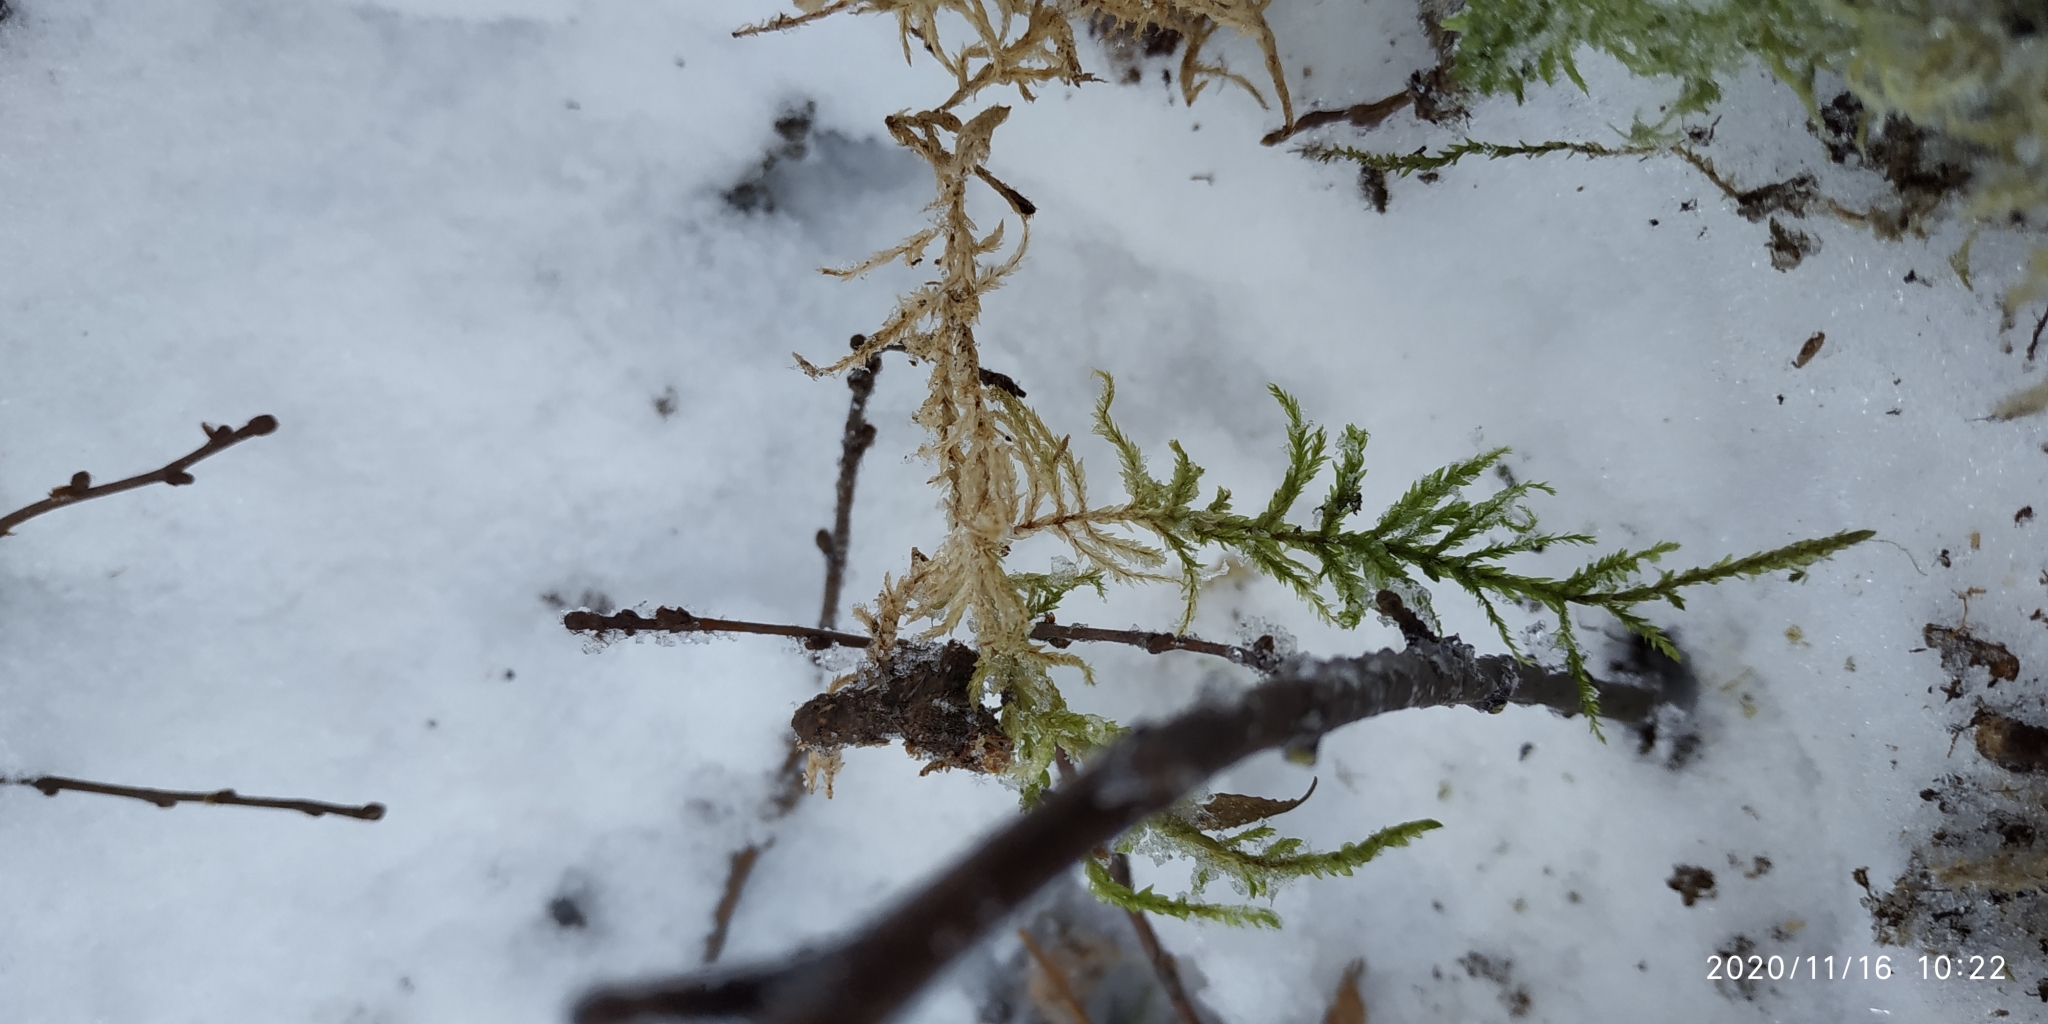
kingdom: Plantae
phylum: Bryophyta
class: Bryopsida
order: Hypnales
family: Hylocomiaceae
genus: Pleurozium
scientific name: Pleurozium schreberi
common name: Red-stemmed feather moss
